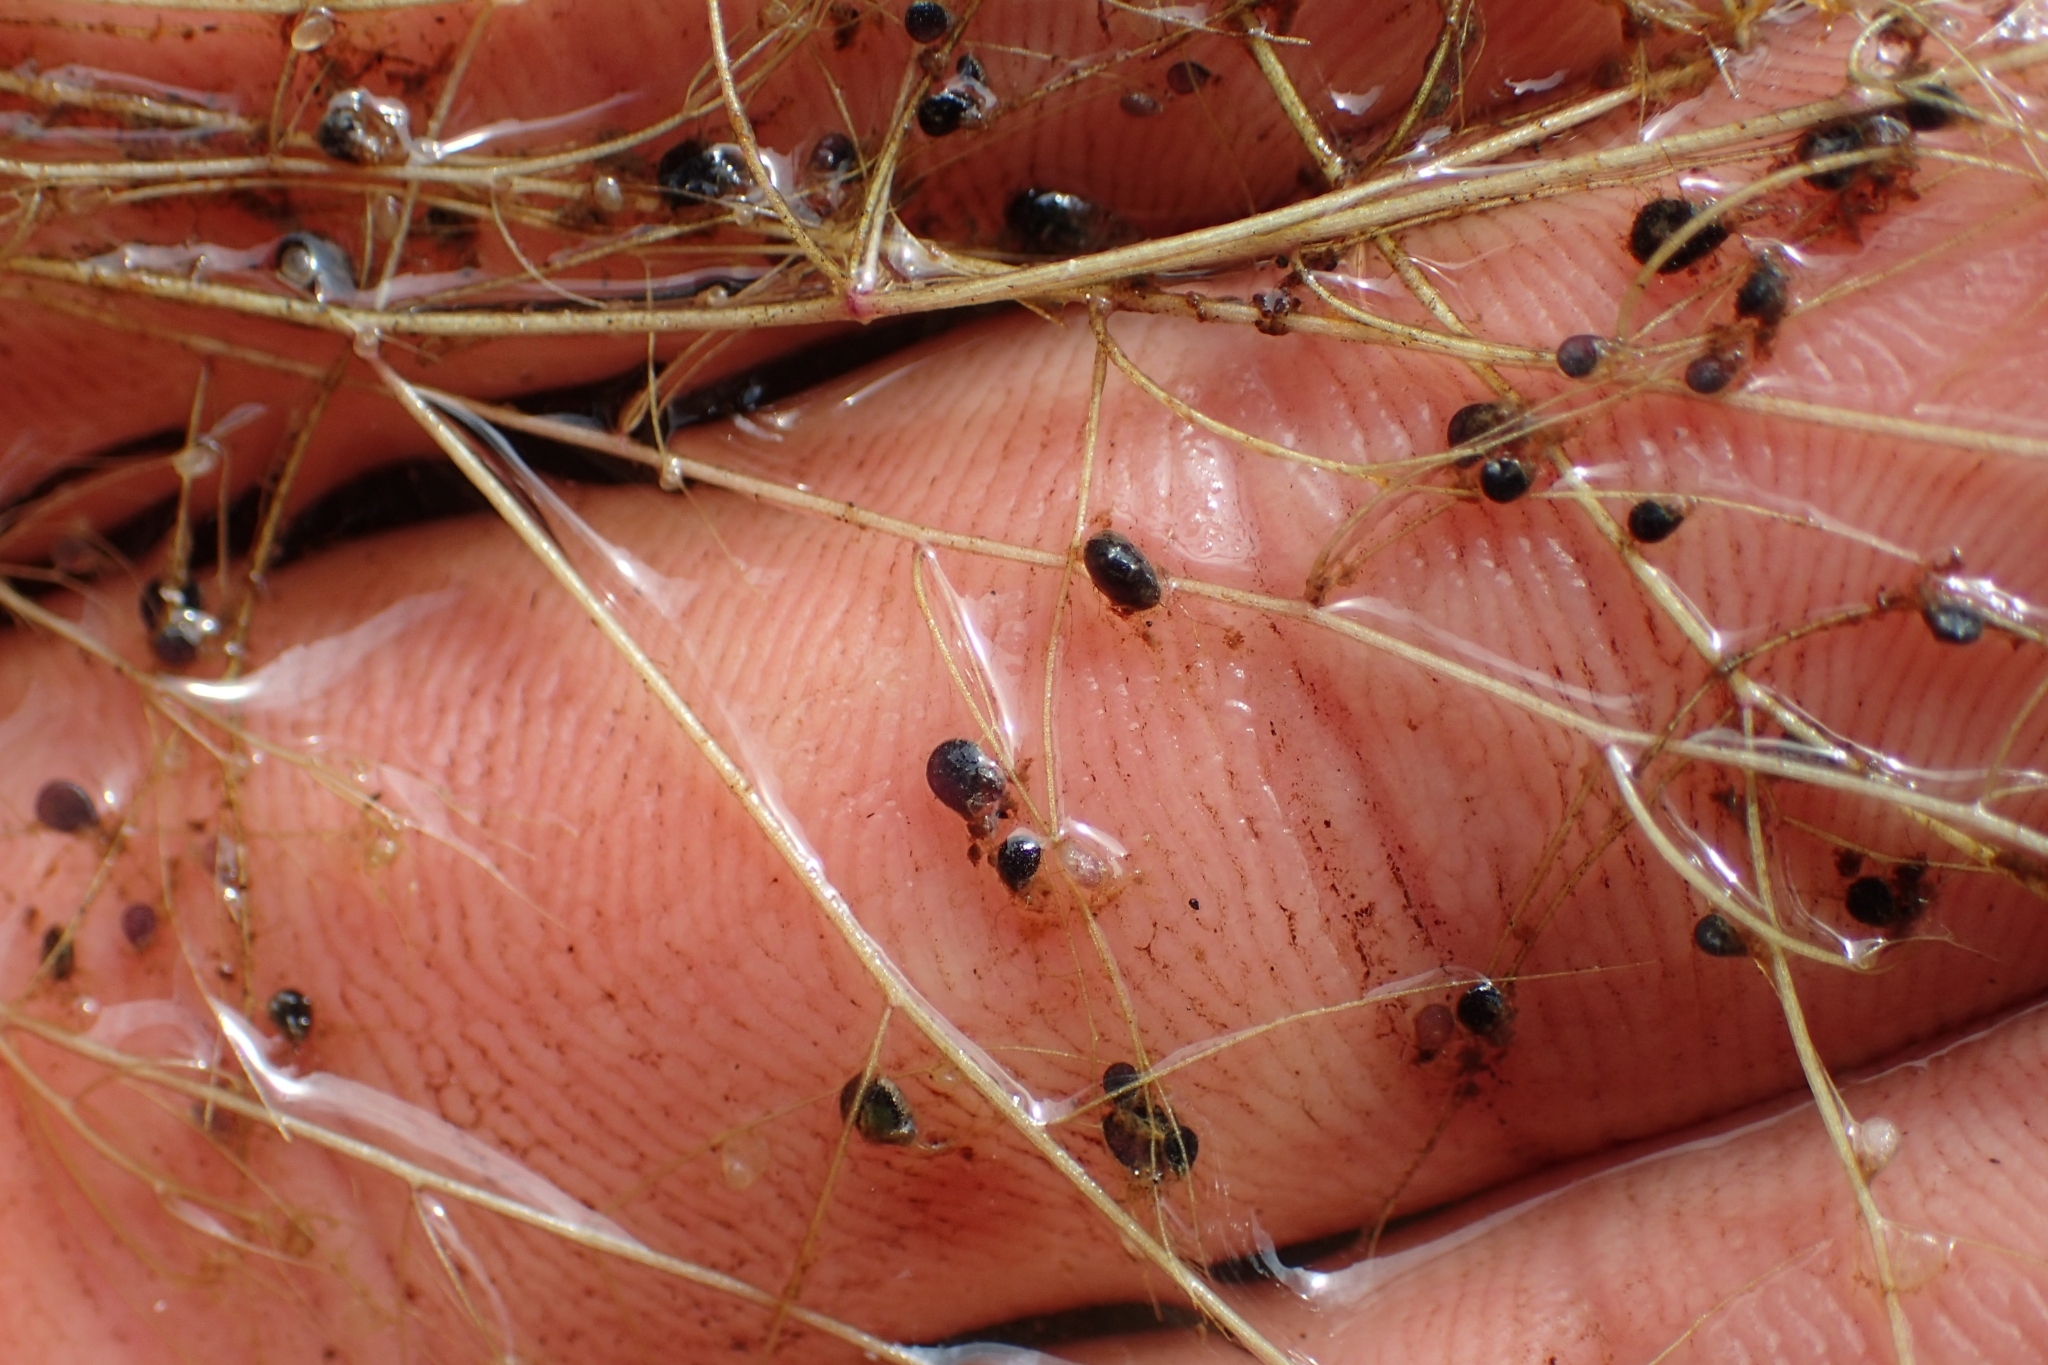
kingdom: Plantae
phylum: Tracheophyta
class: Magnoliopsida
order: Lamiales
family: Lentibulariaceae
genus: Utricularia
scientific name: Utricularia gibba
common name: Humped bladderwort
